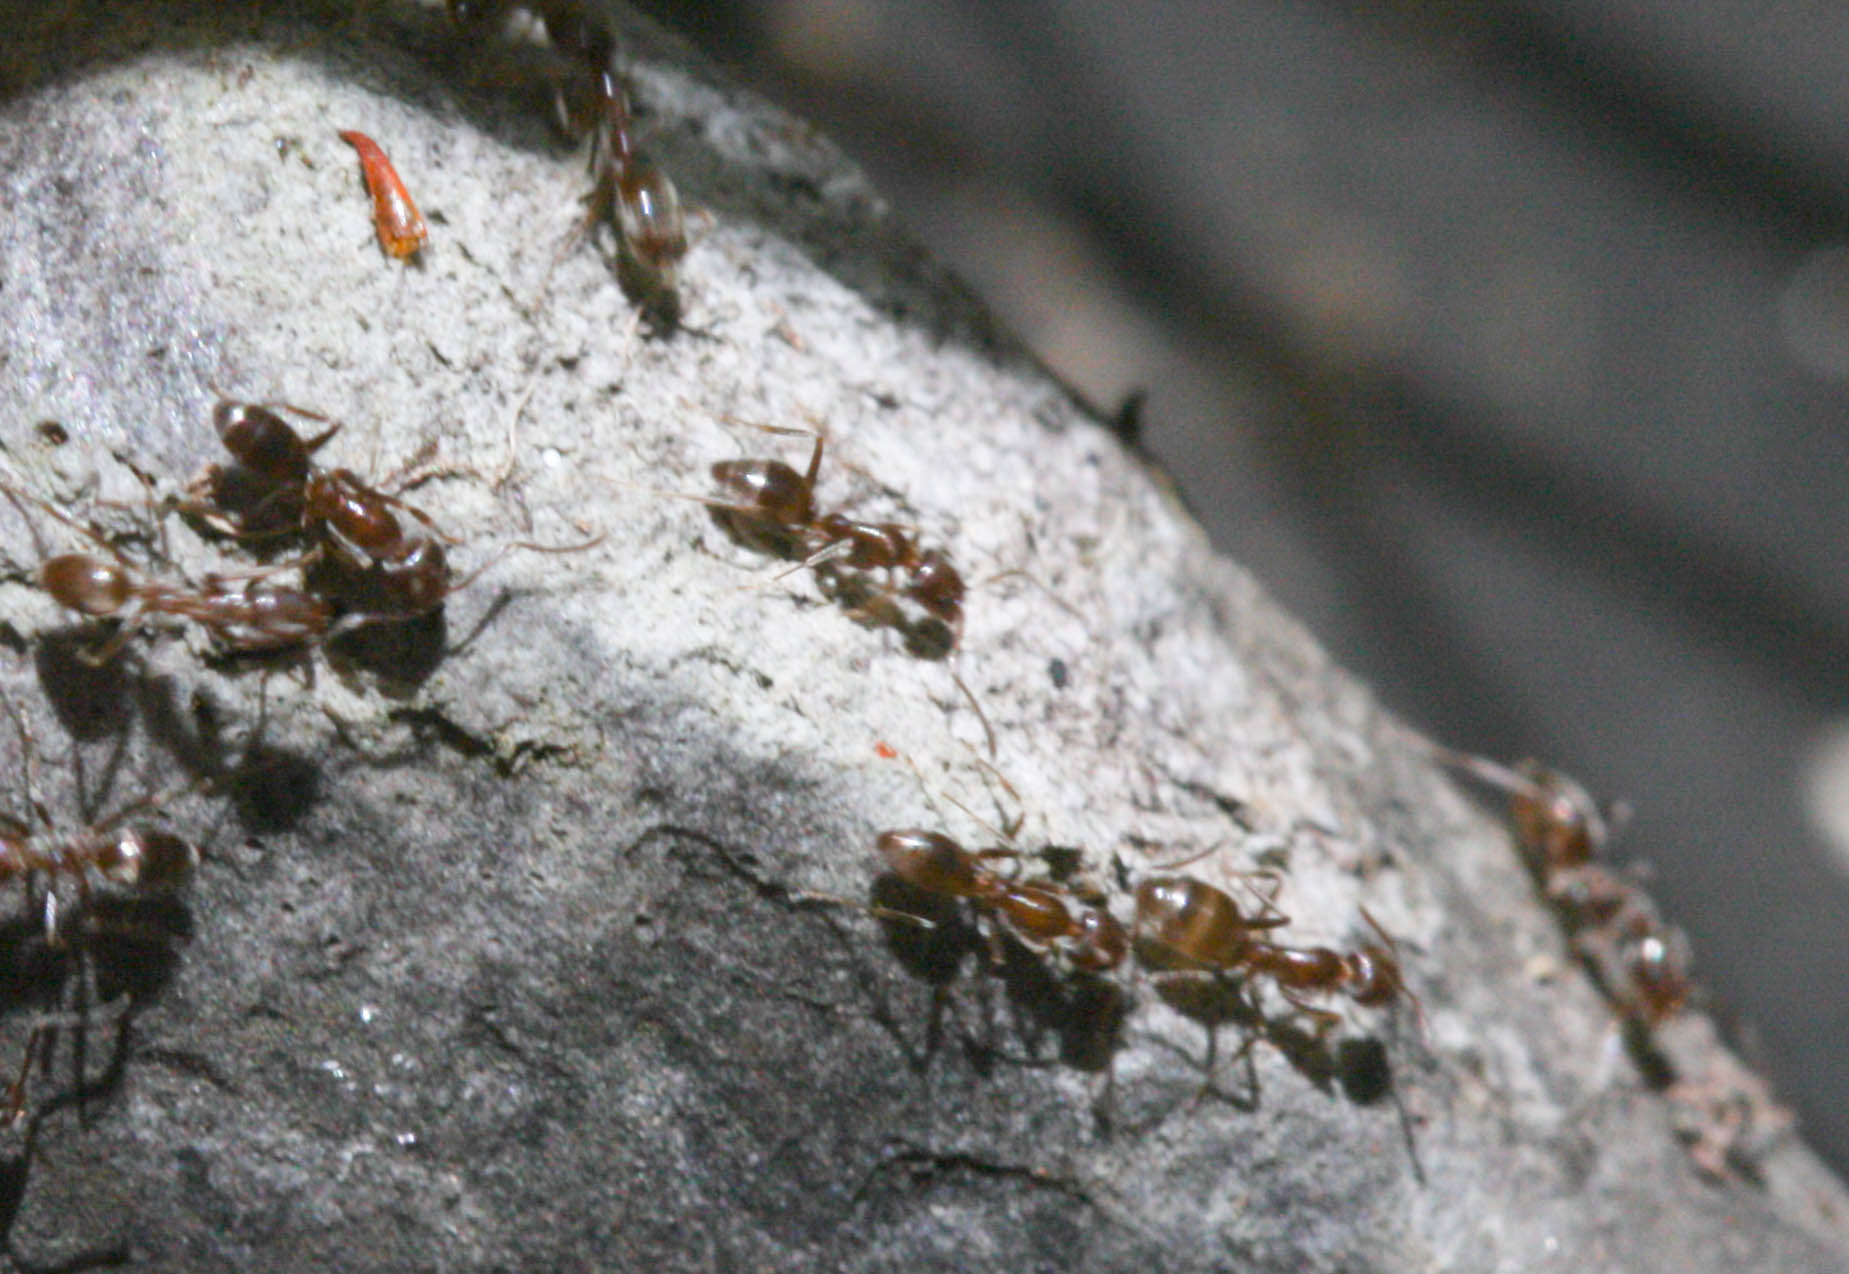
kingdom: Animalia
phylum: Arthropoda
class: Insecta
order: Hymenoptera
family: Formicidae
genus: Linepithema
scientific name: Linepithema humile
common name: Argentine ant
